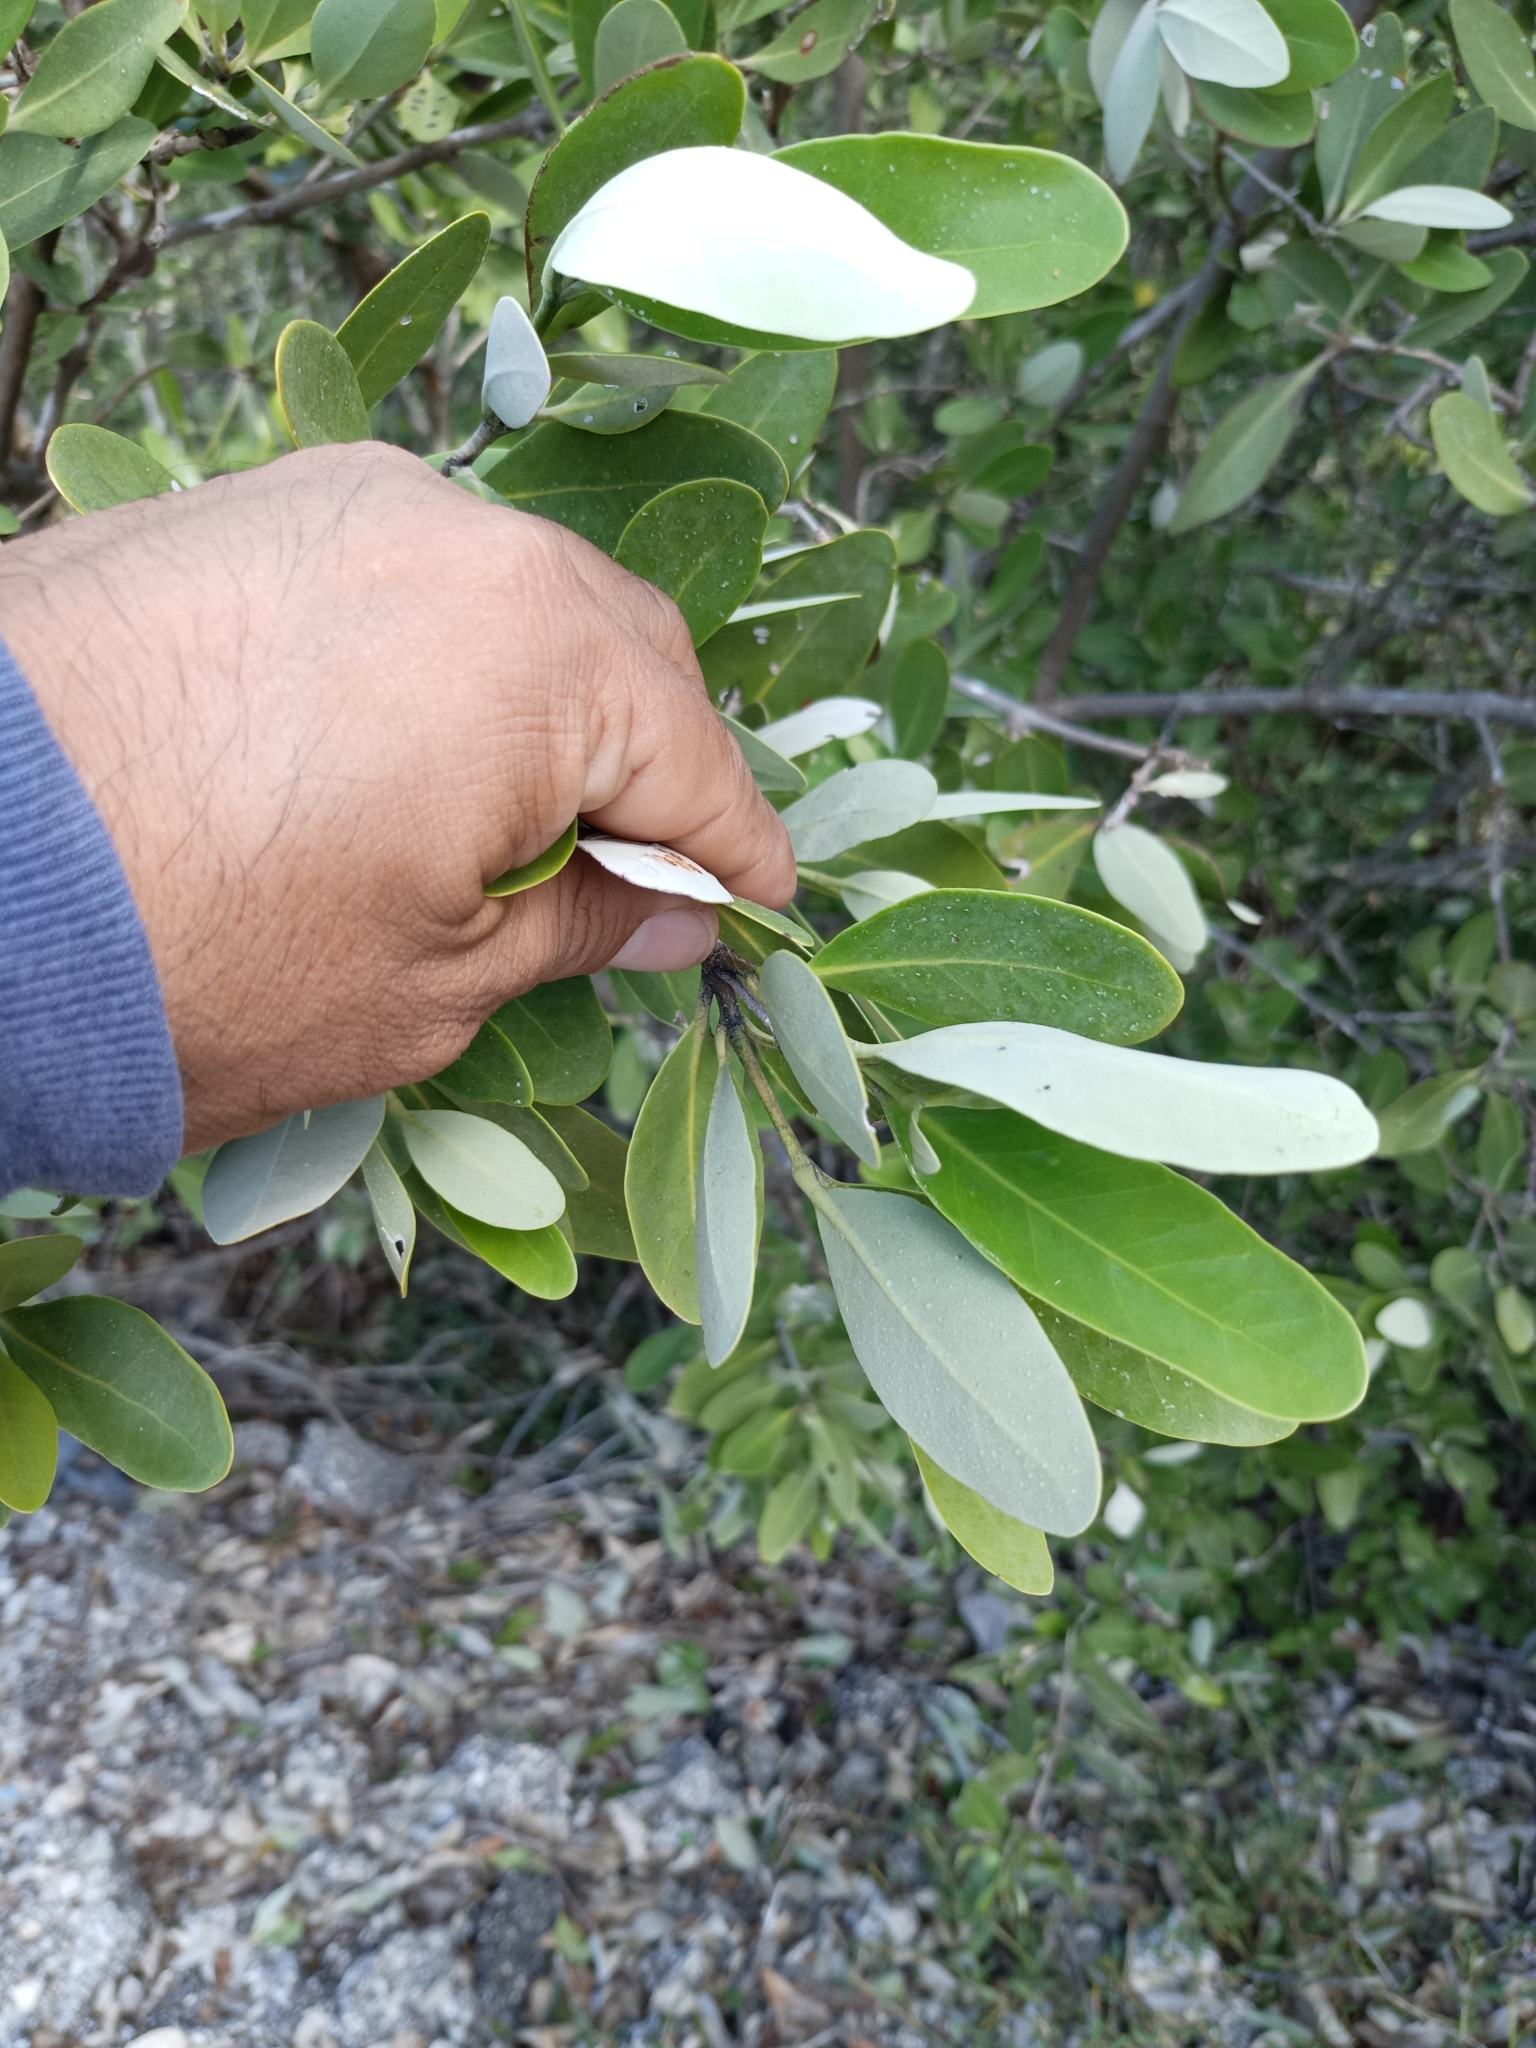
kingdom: Plantae
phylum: Tracheophyta
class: Magnoliopsida
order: Lamiales
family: Acanthaceae
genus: Avicennia
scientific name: Avicennia germinans
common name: Black mangrove
